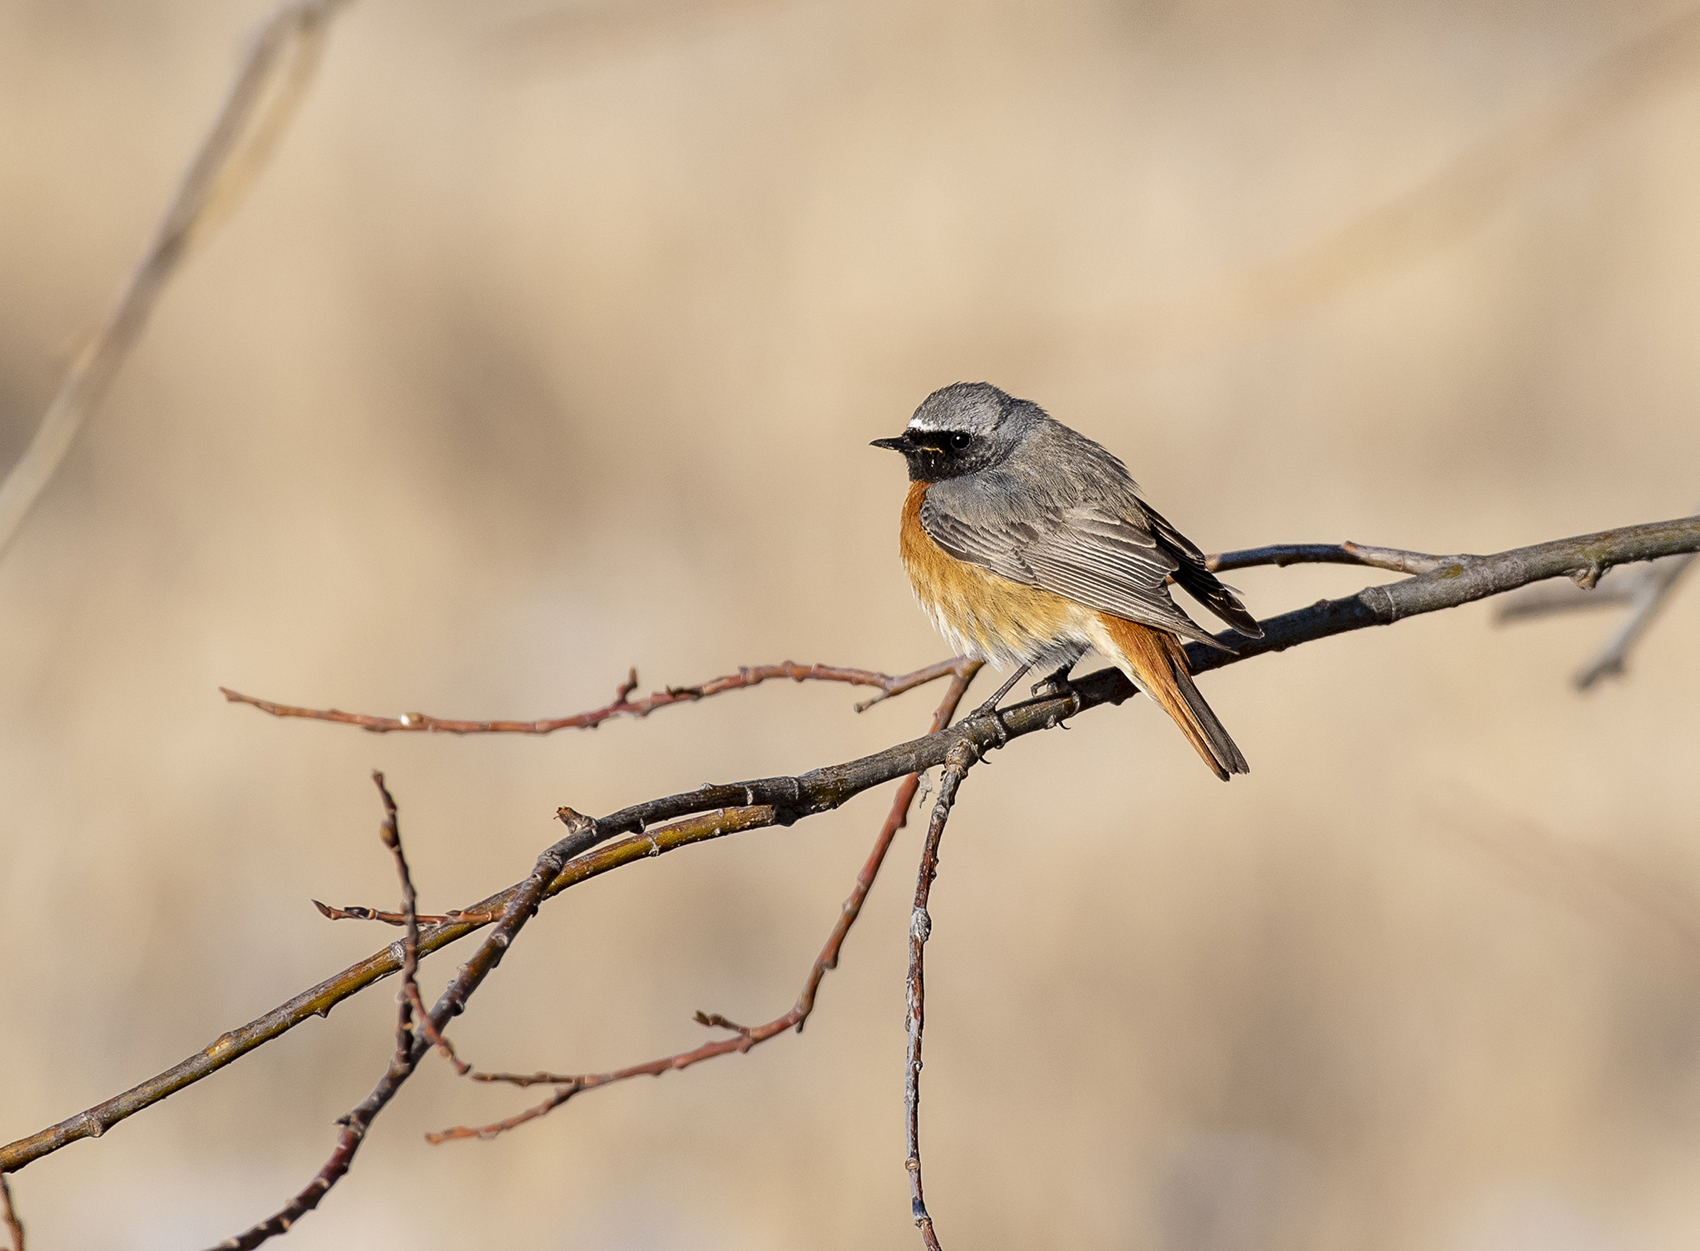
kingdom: Animalia
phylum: Chordata
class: Aves
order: Passeriformes
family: Muscicapidae
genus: Phoenicurus
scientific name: Phoenicurus phoenicurus
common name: Common redstart
